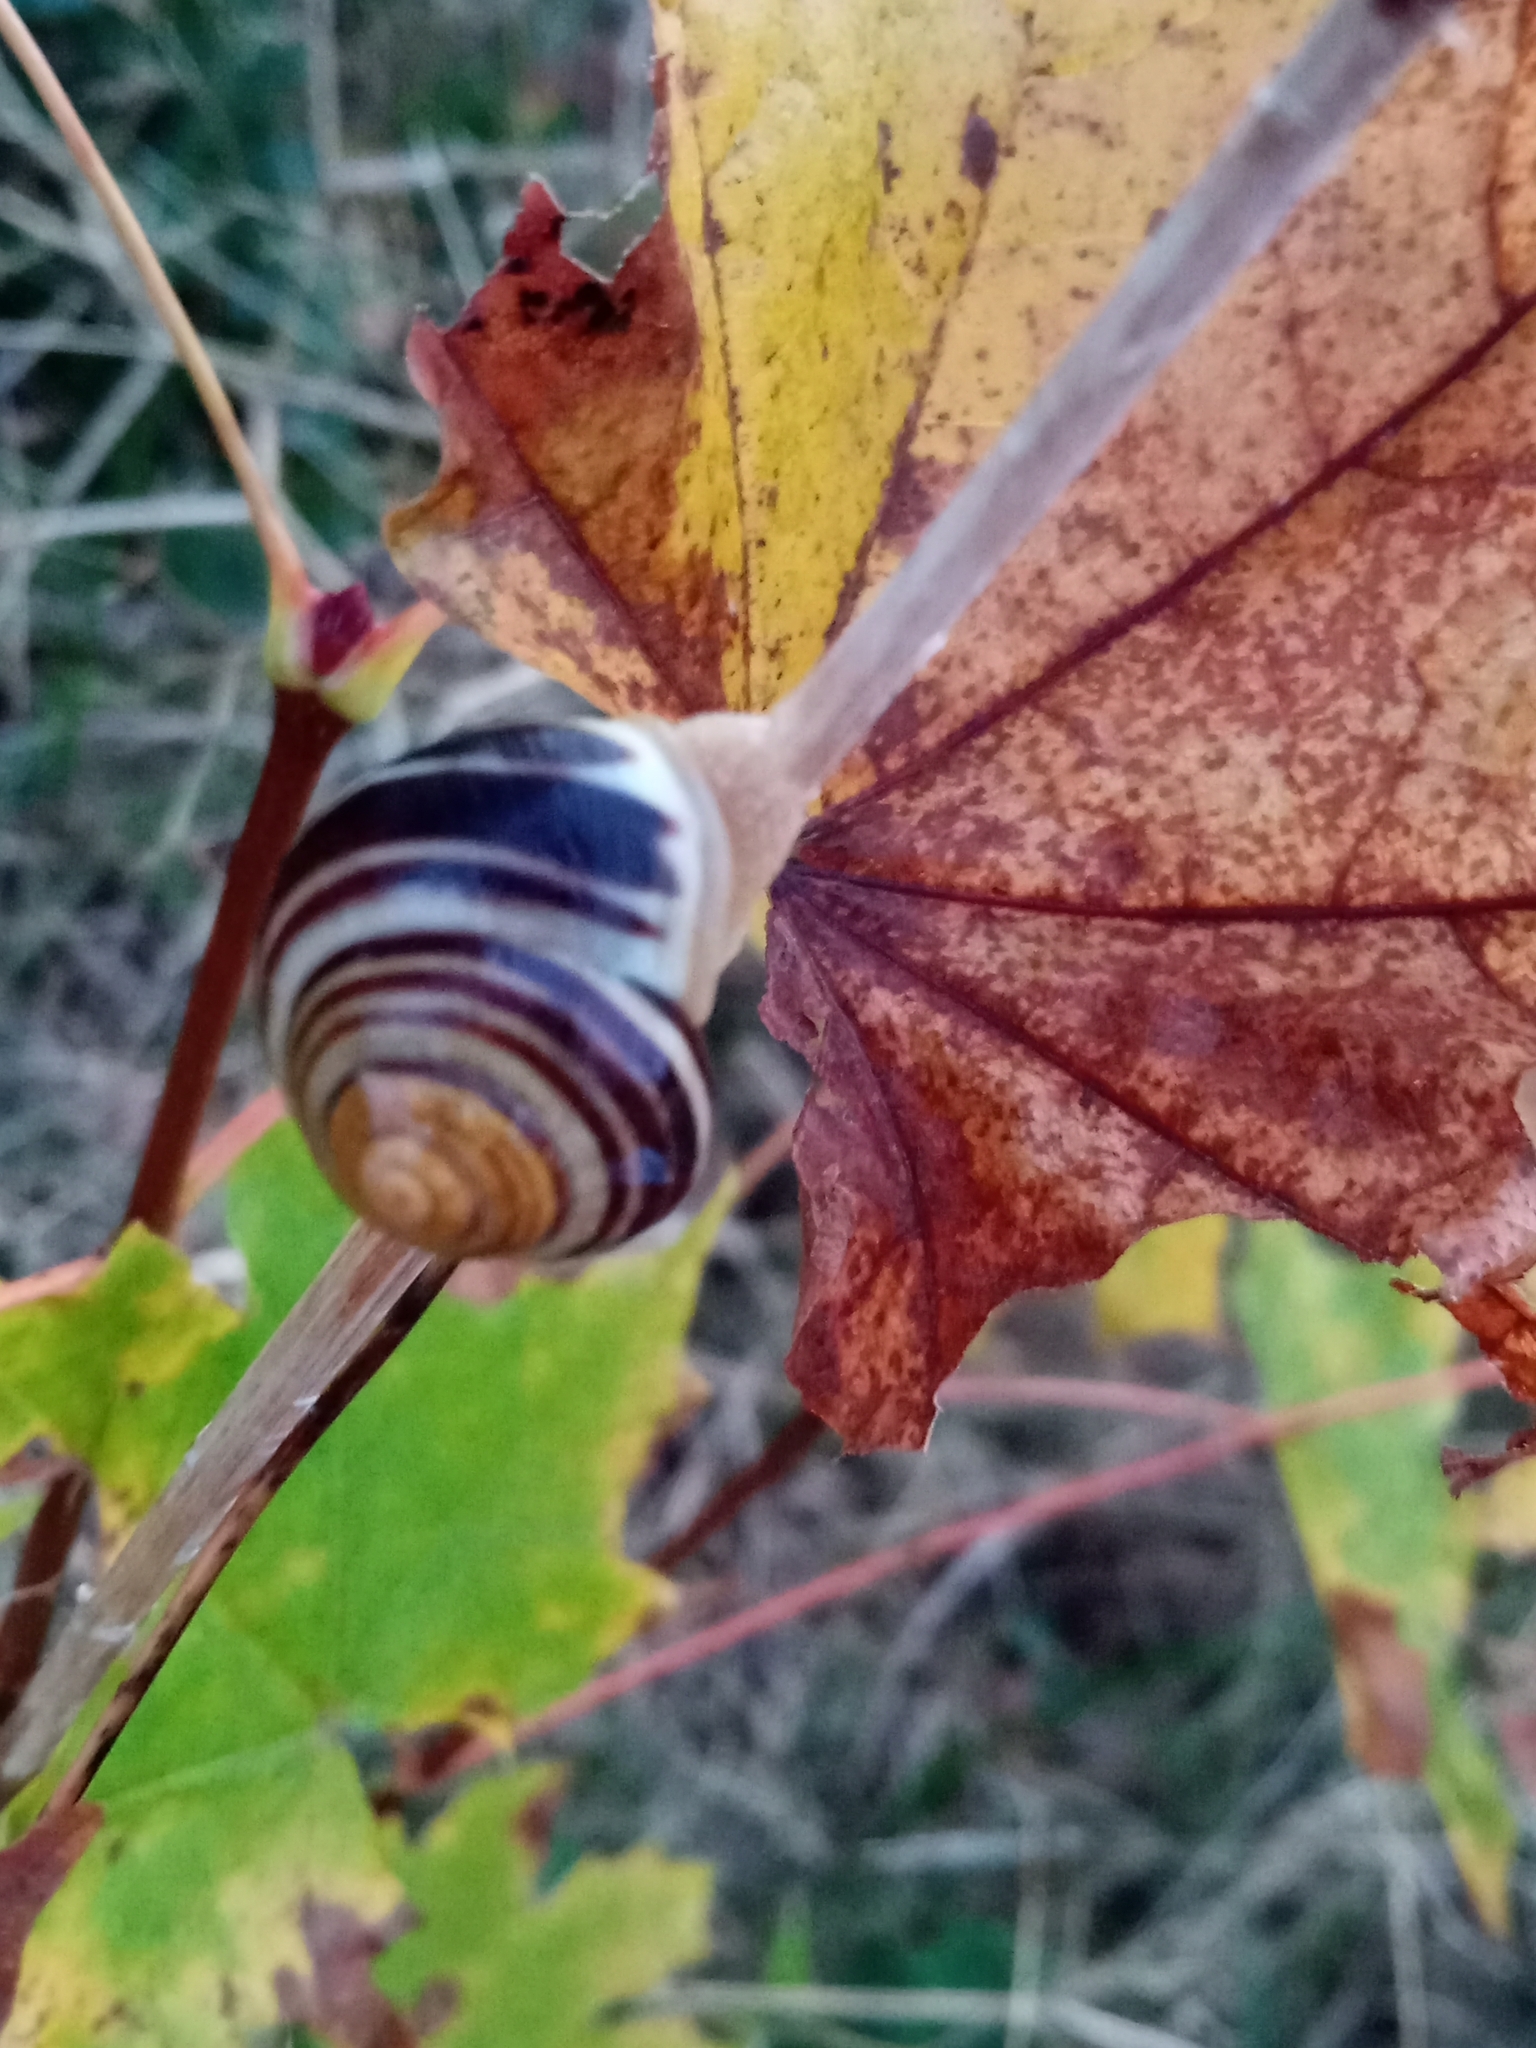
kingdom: Animalia
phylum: Mollusca
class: Gastropoda
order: Stylommatophora
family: Helicidae
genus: Cepaea
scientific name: Cepaea hortensis
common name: White-lip gardensnail
